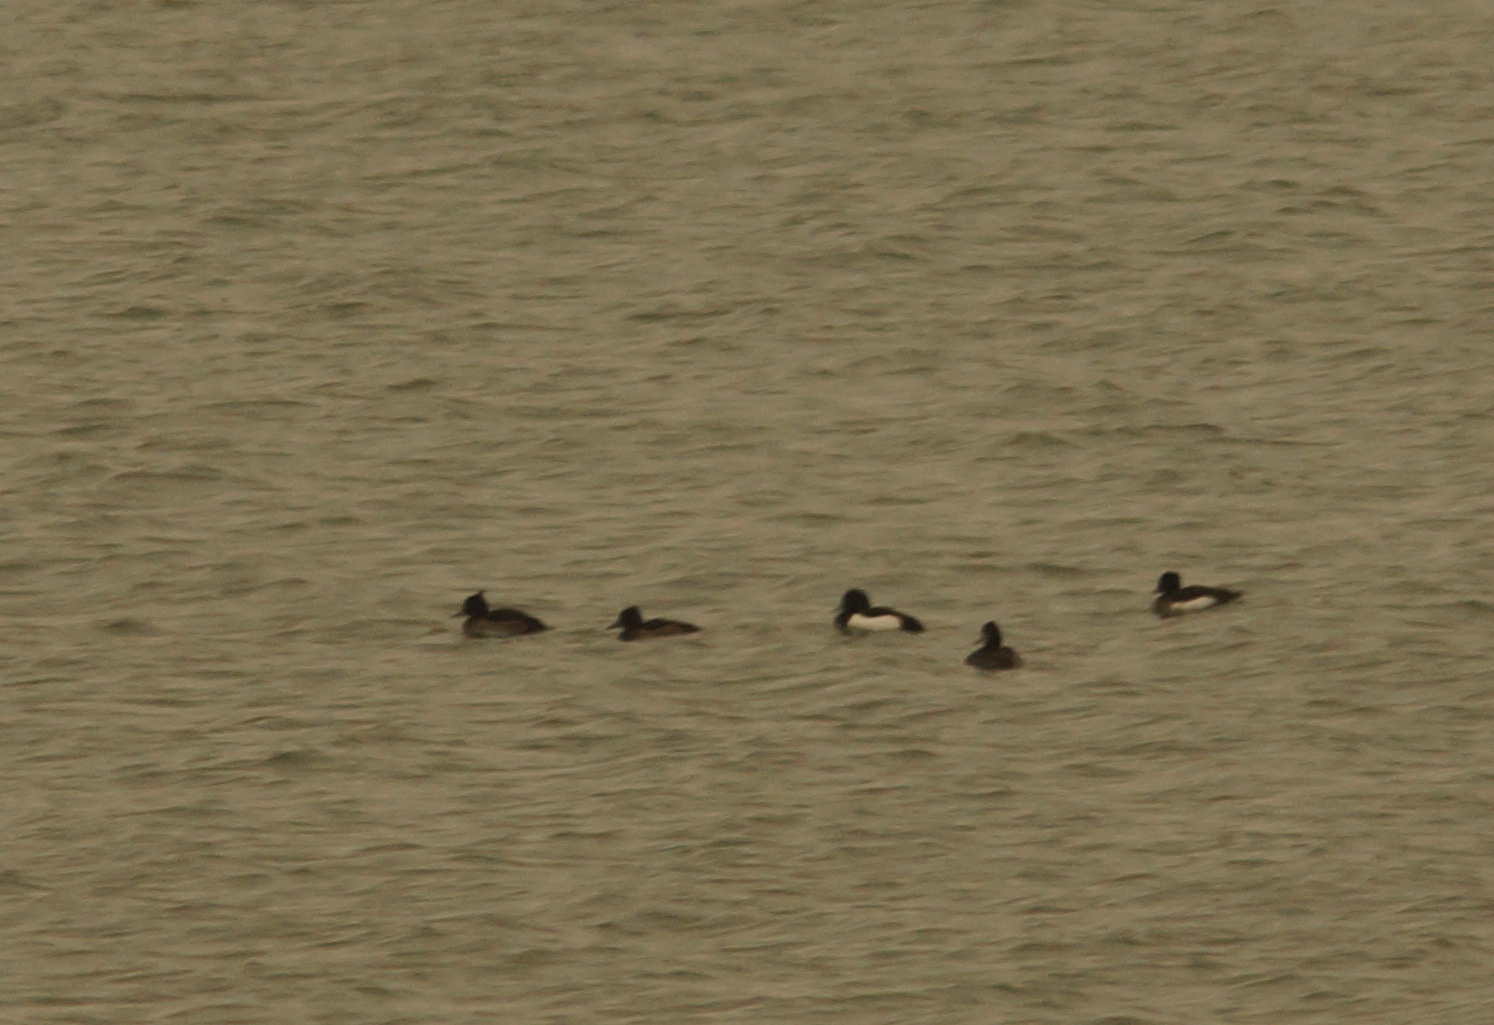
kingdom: Animalia
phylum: Chordata
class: Aves
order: Anseriformes
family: Anatidae
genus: Aythya
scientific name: Aythya fuligula
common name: Tufted duck
